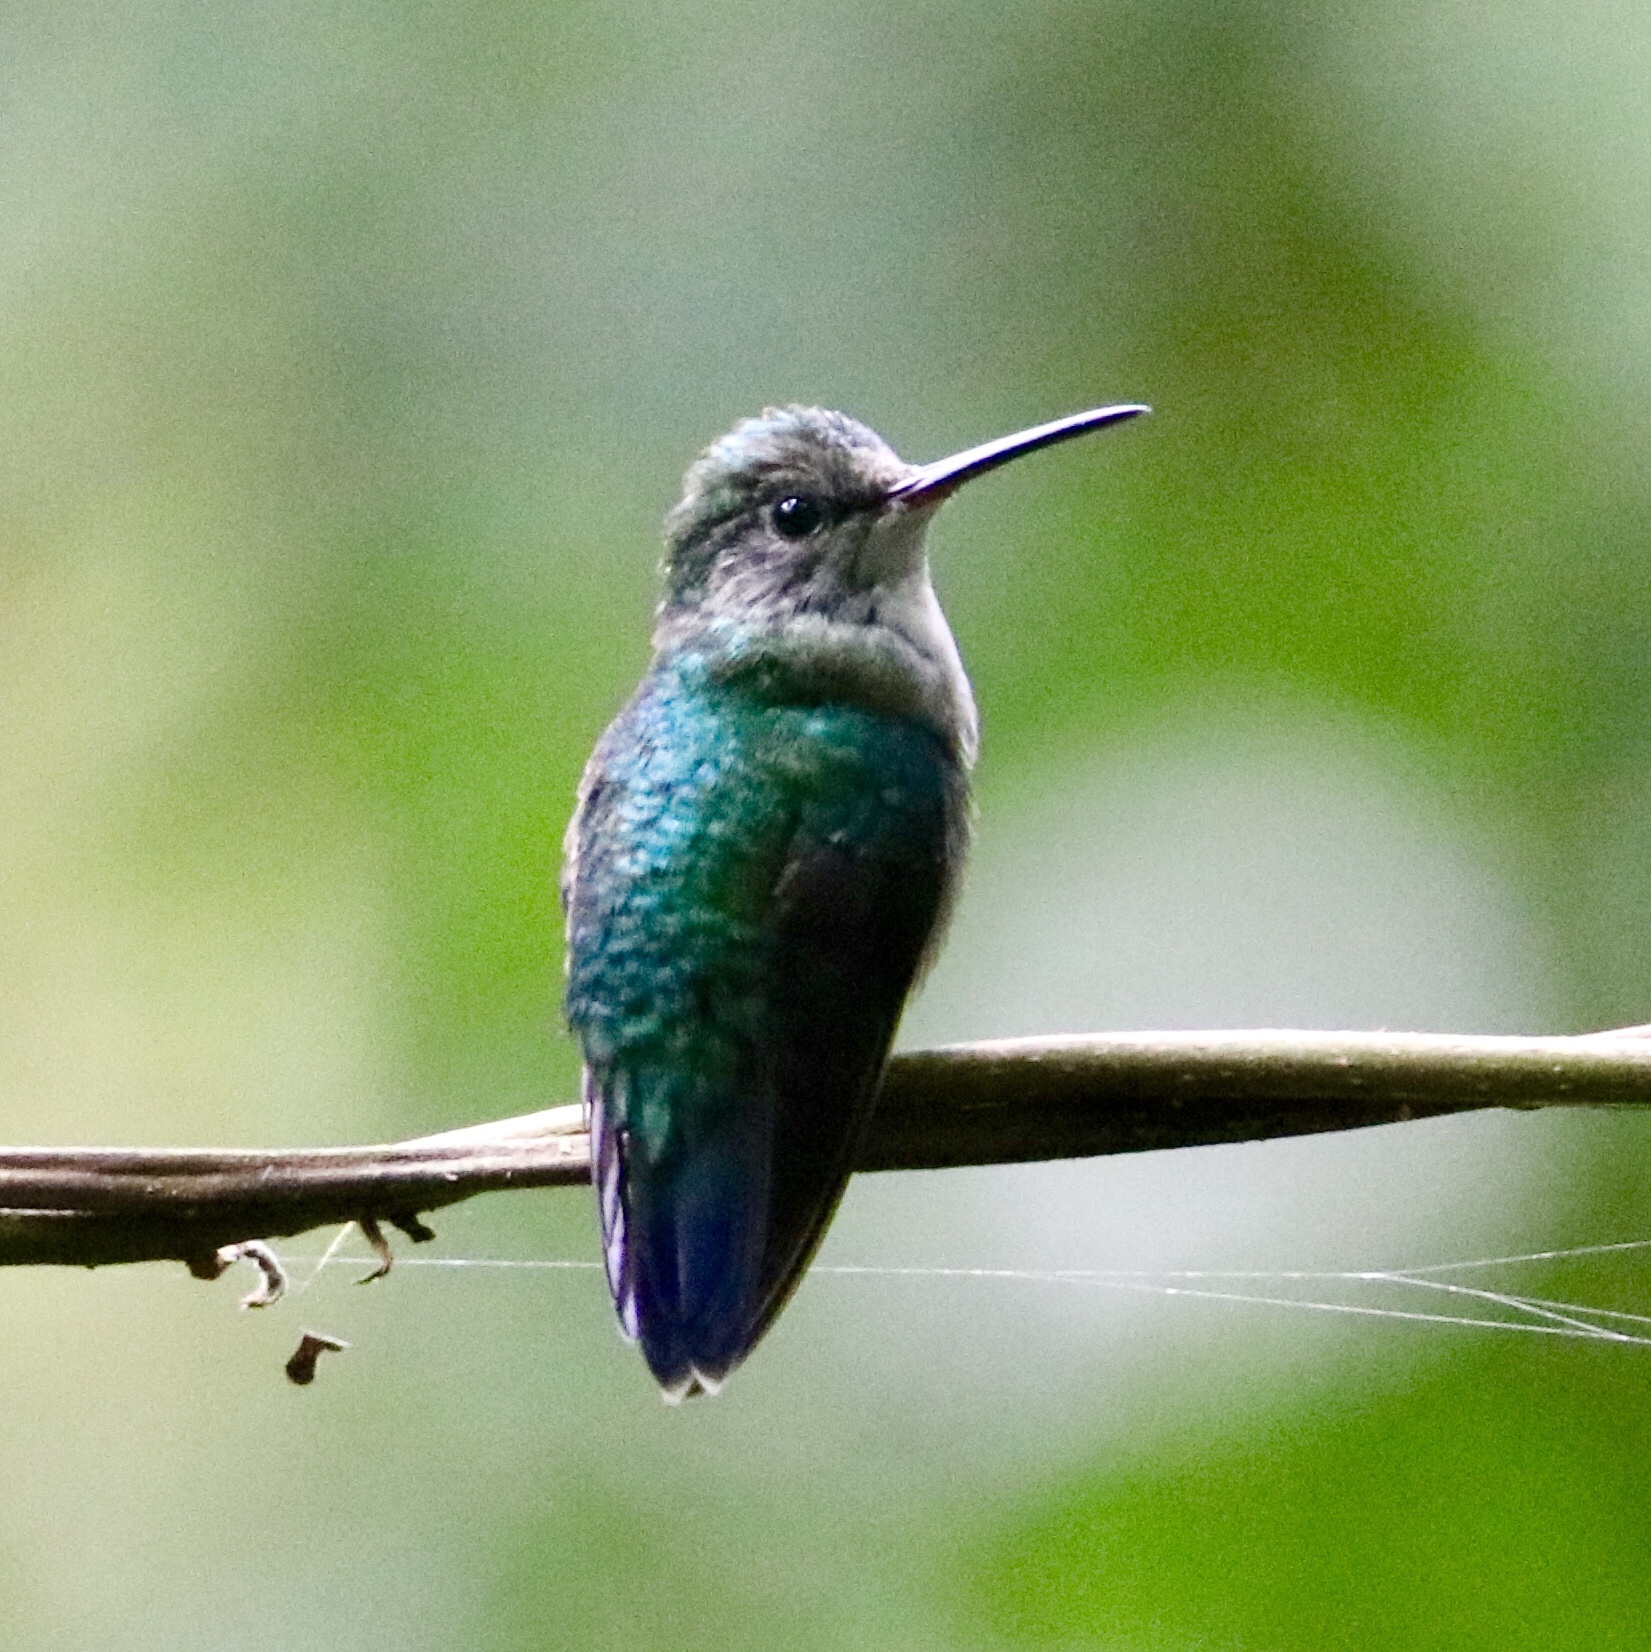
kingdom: Animalia
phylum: Chordata
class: Aves
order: Apodiformes
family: Trochilidae
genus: Thalurania
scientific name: Thalurania colombica
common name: Crowned woodnymph
